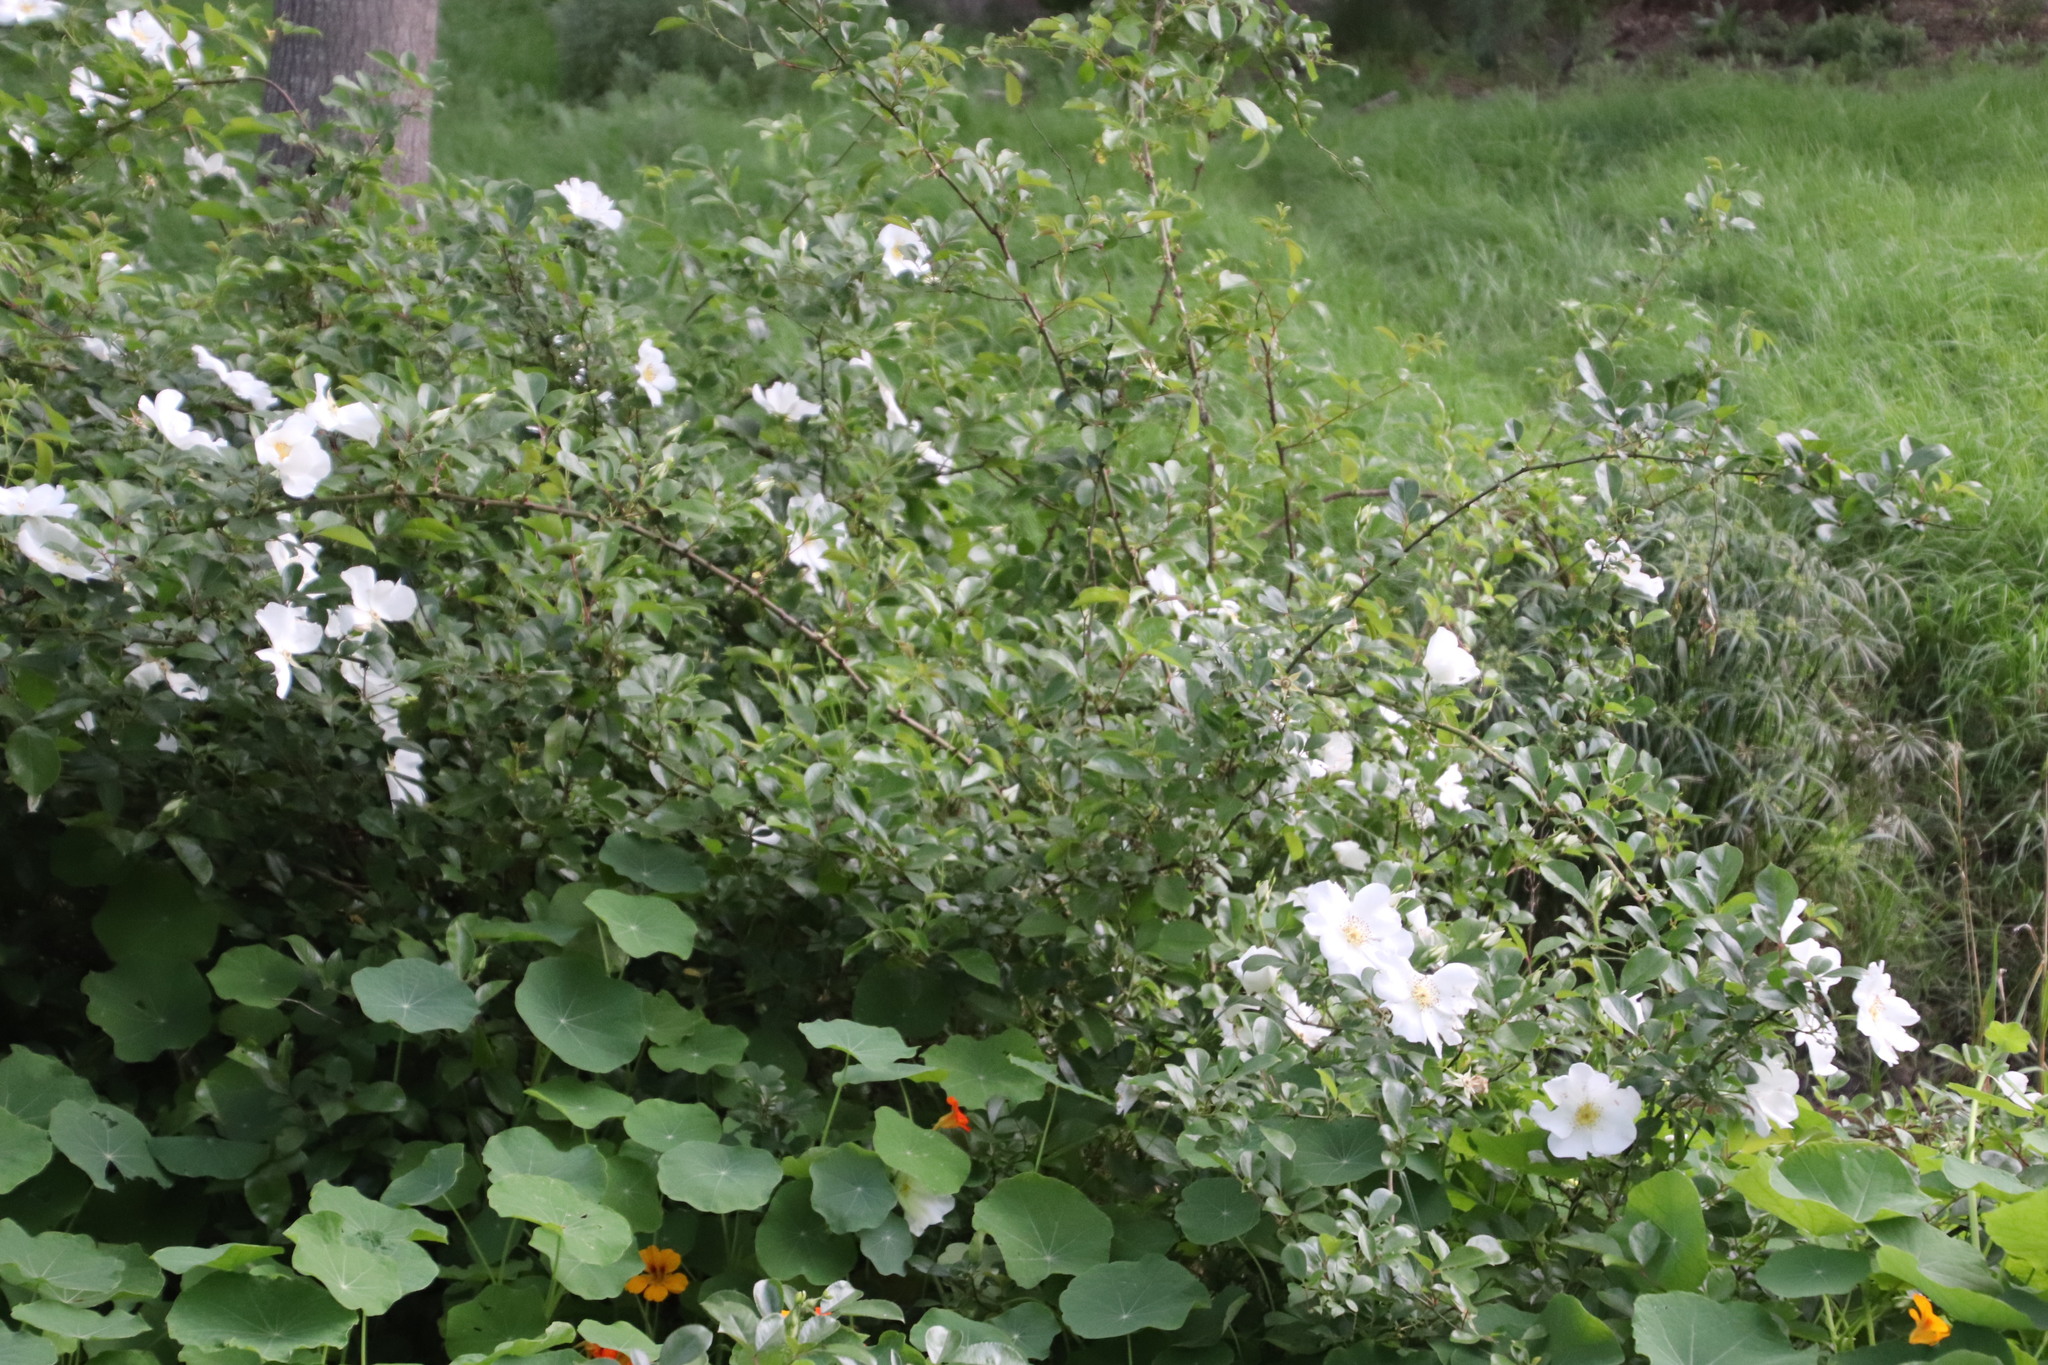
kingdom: Plantae
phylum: Tracheophyta
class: Magnoliopsida
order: Rosales
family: Rosaceae
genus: Rosa
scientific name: Rosa laevigata
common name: Cherokee rose
